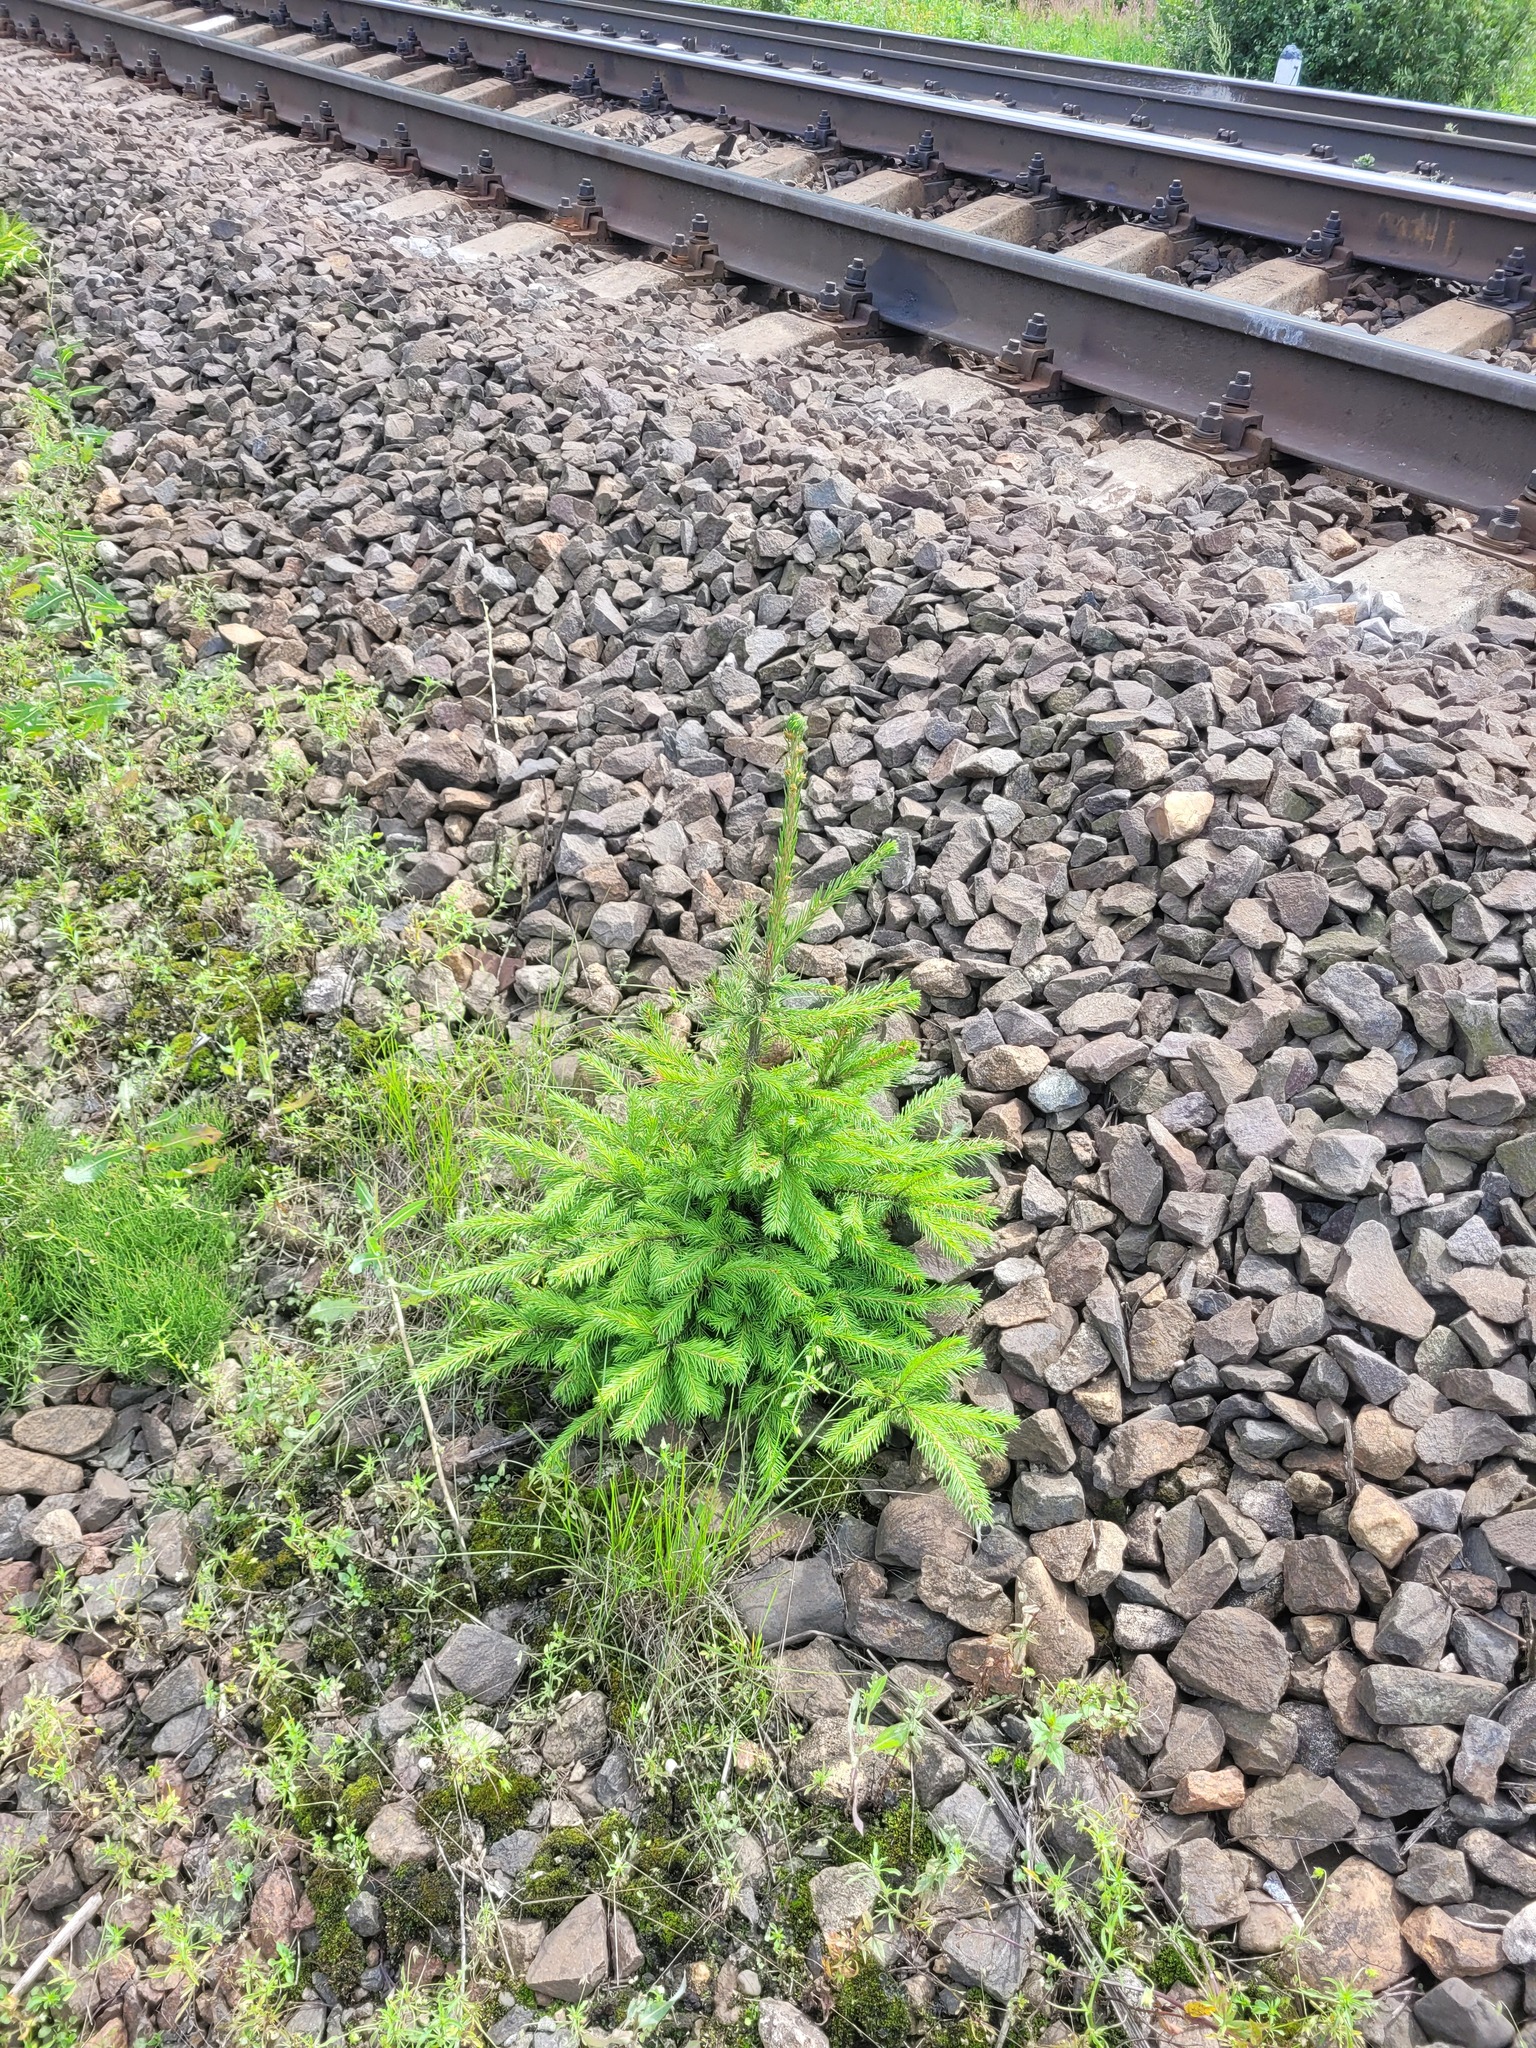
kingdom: Plantae
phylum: Tracheophyta
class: Pinopsida
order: Pinales
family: Pinaceae
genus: Picea
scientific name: Picea abies
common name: Norway spruce
